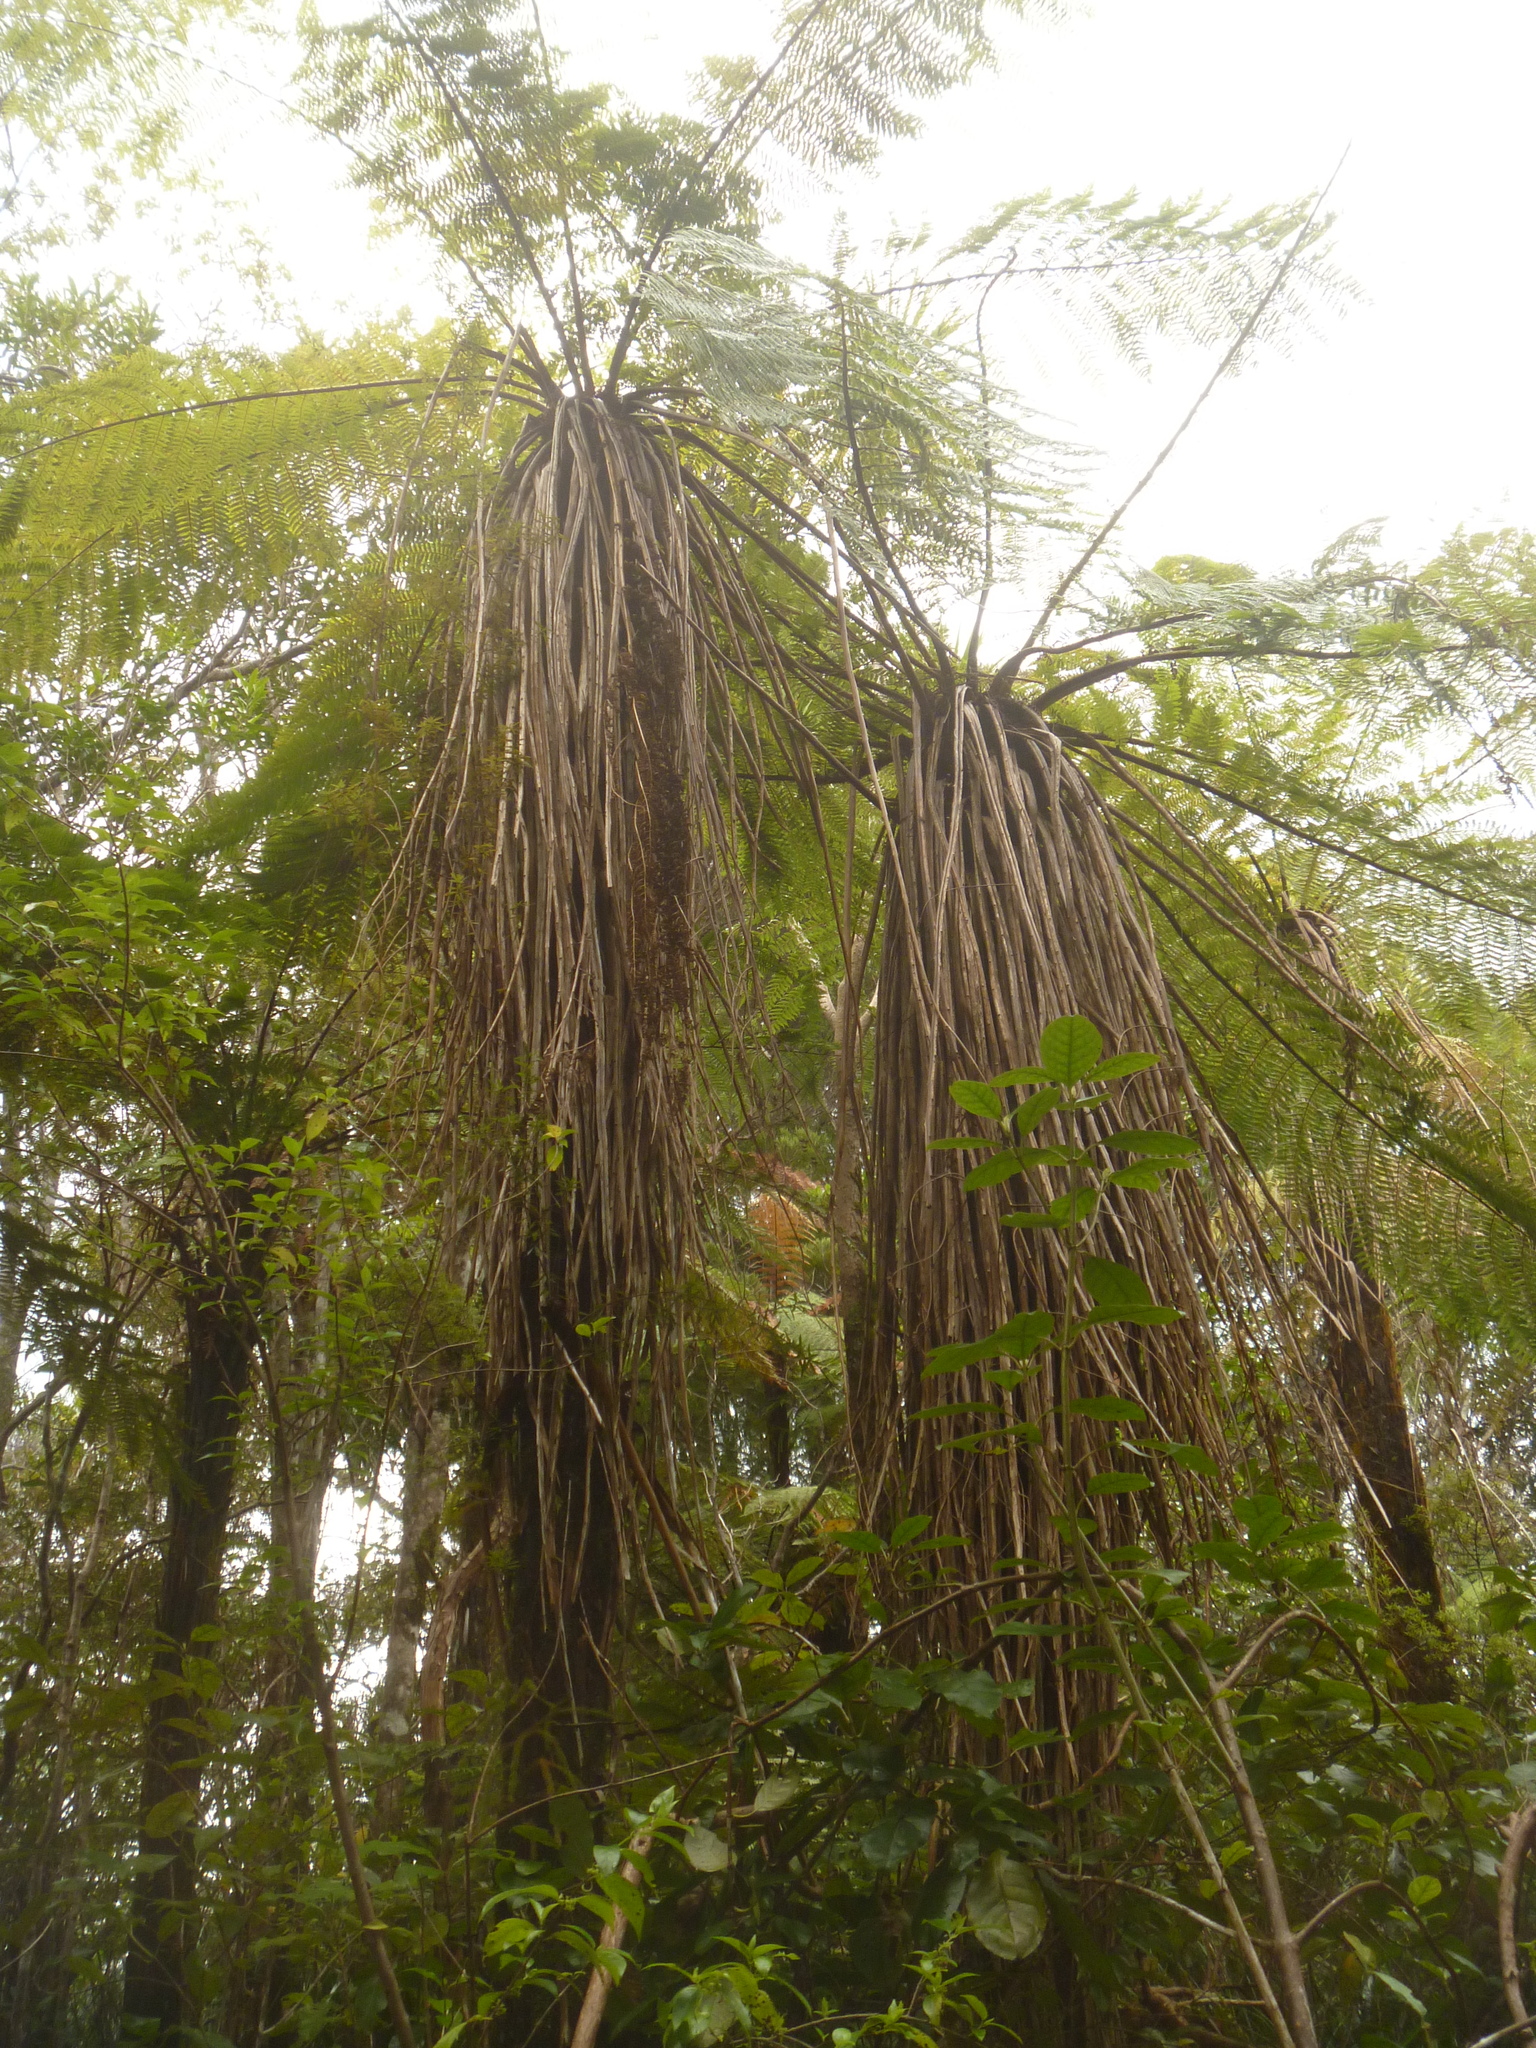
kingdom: Plantae
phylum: Tracheophyta
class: Polypodiopsida
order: Cyatheales
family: Cyatheaceae
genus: Alsophila
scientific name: Alsophila smithii
